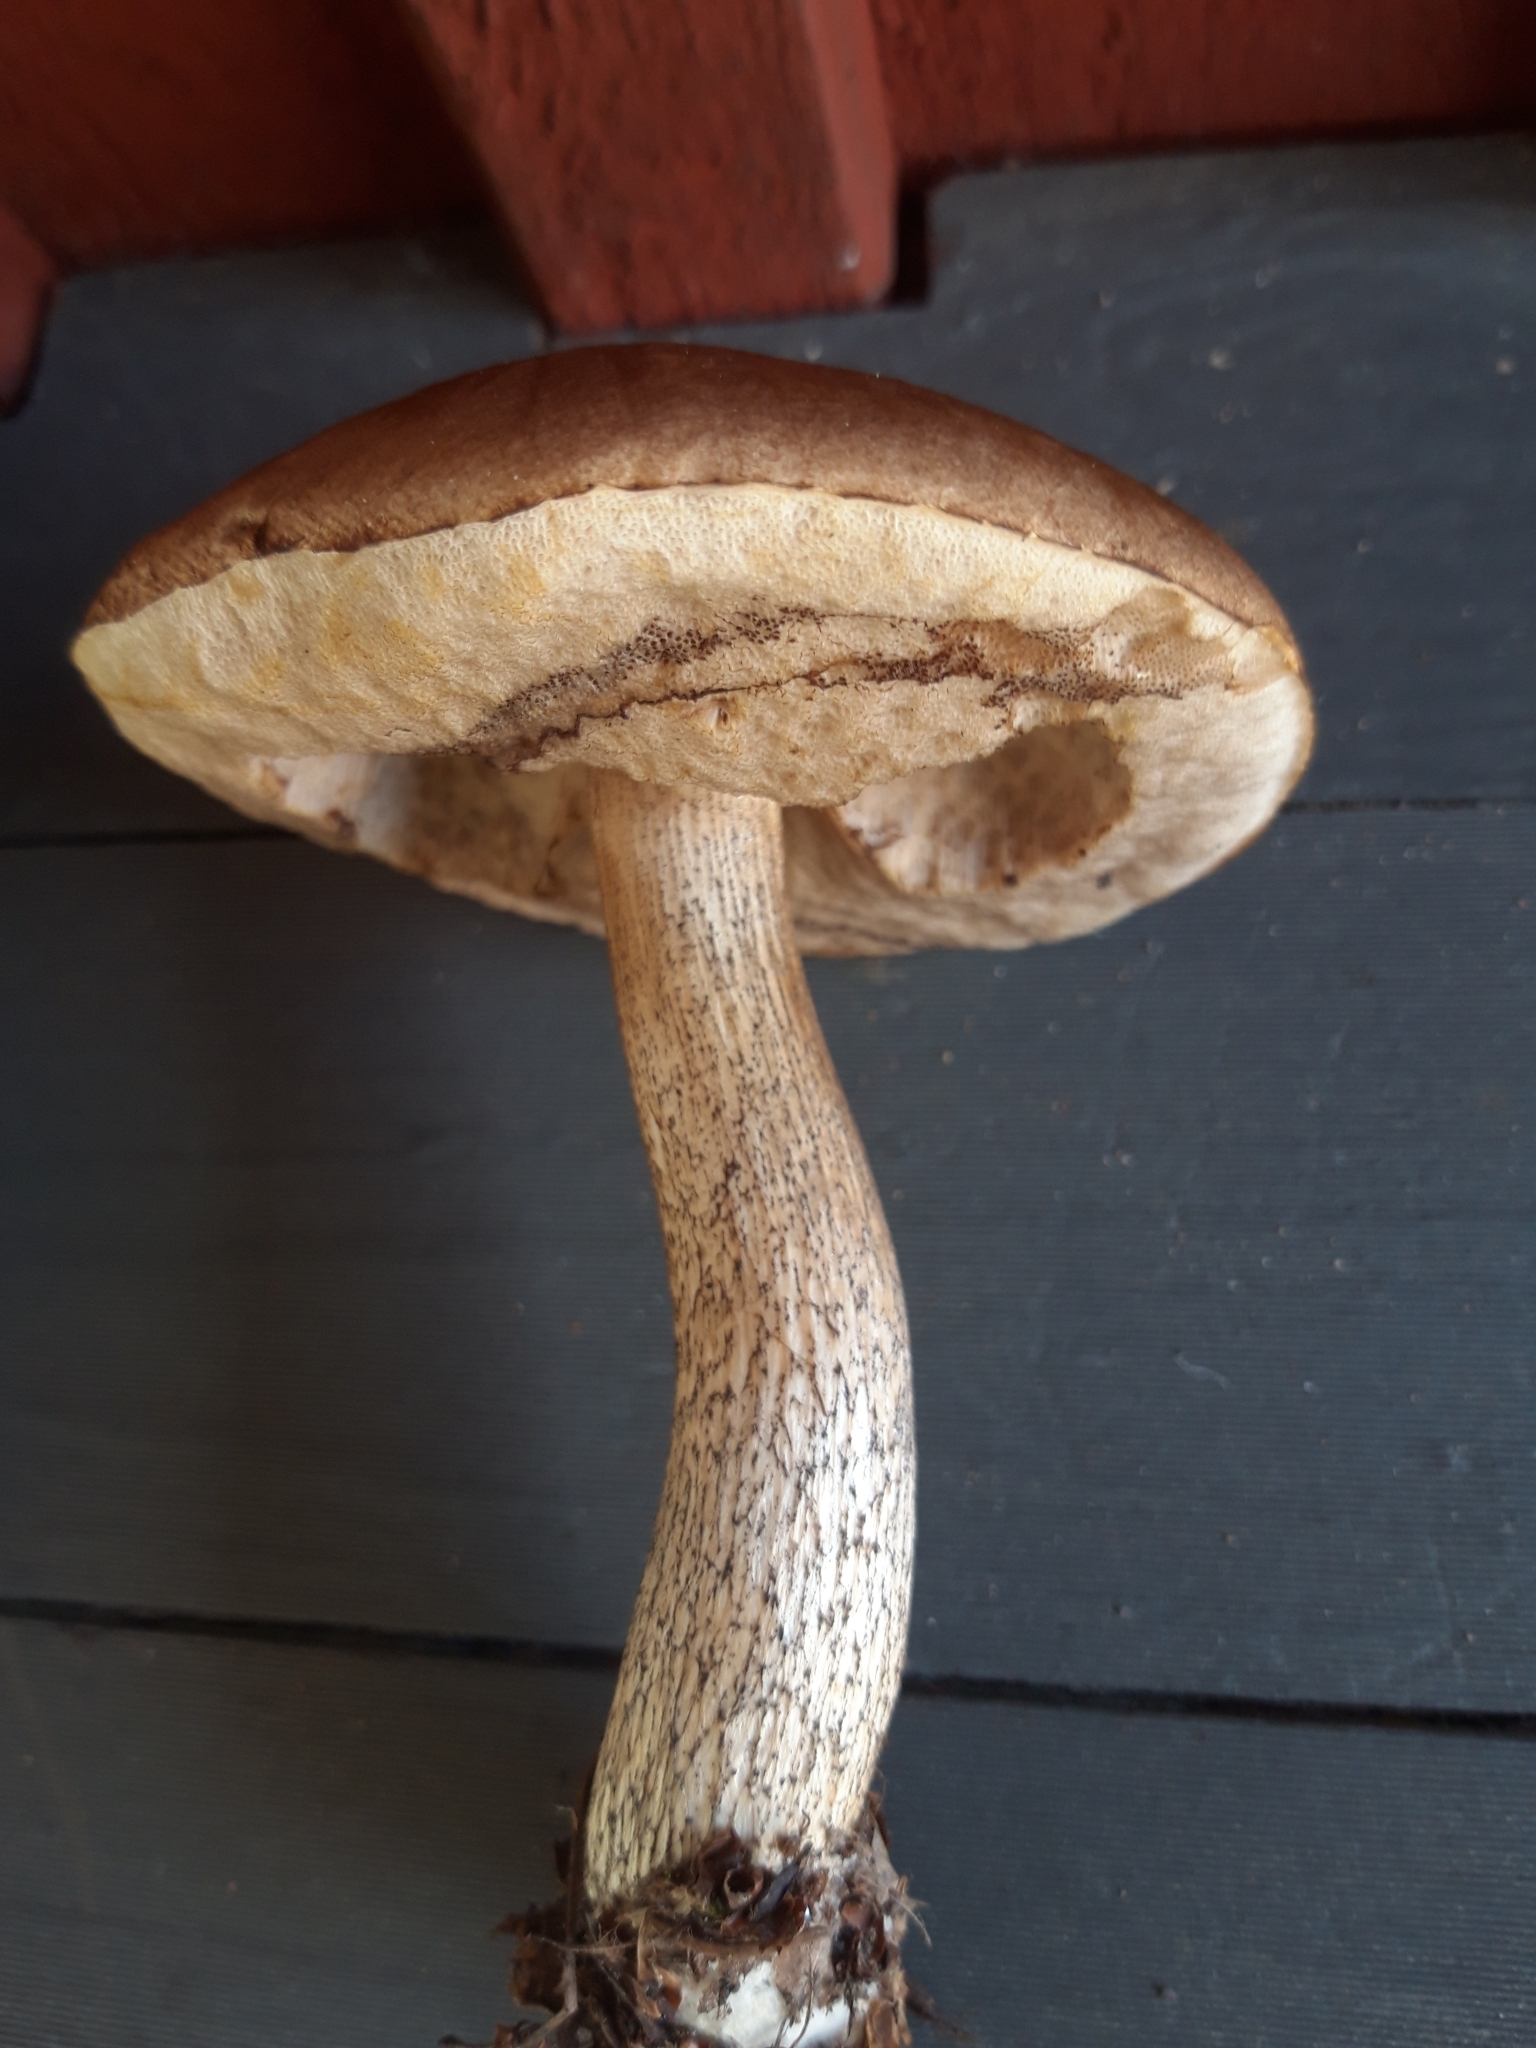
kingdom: Fungi
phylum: Basidiomycota
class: Agaricomycetes
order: Boletales
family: Boletaceae
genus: Leccinum
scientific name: Leccinum scabrum
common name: Blushing bolete
